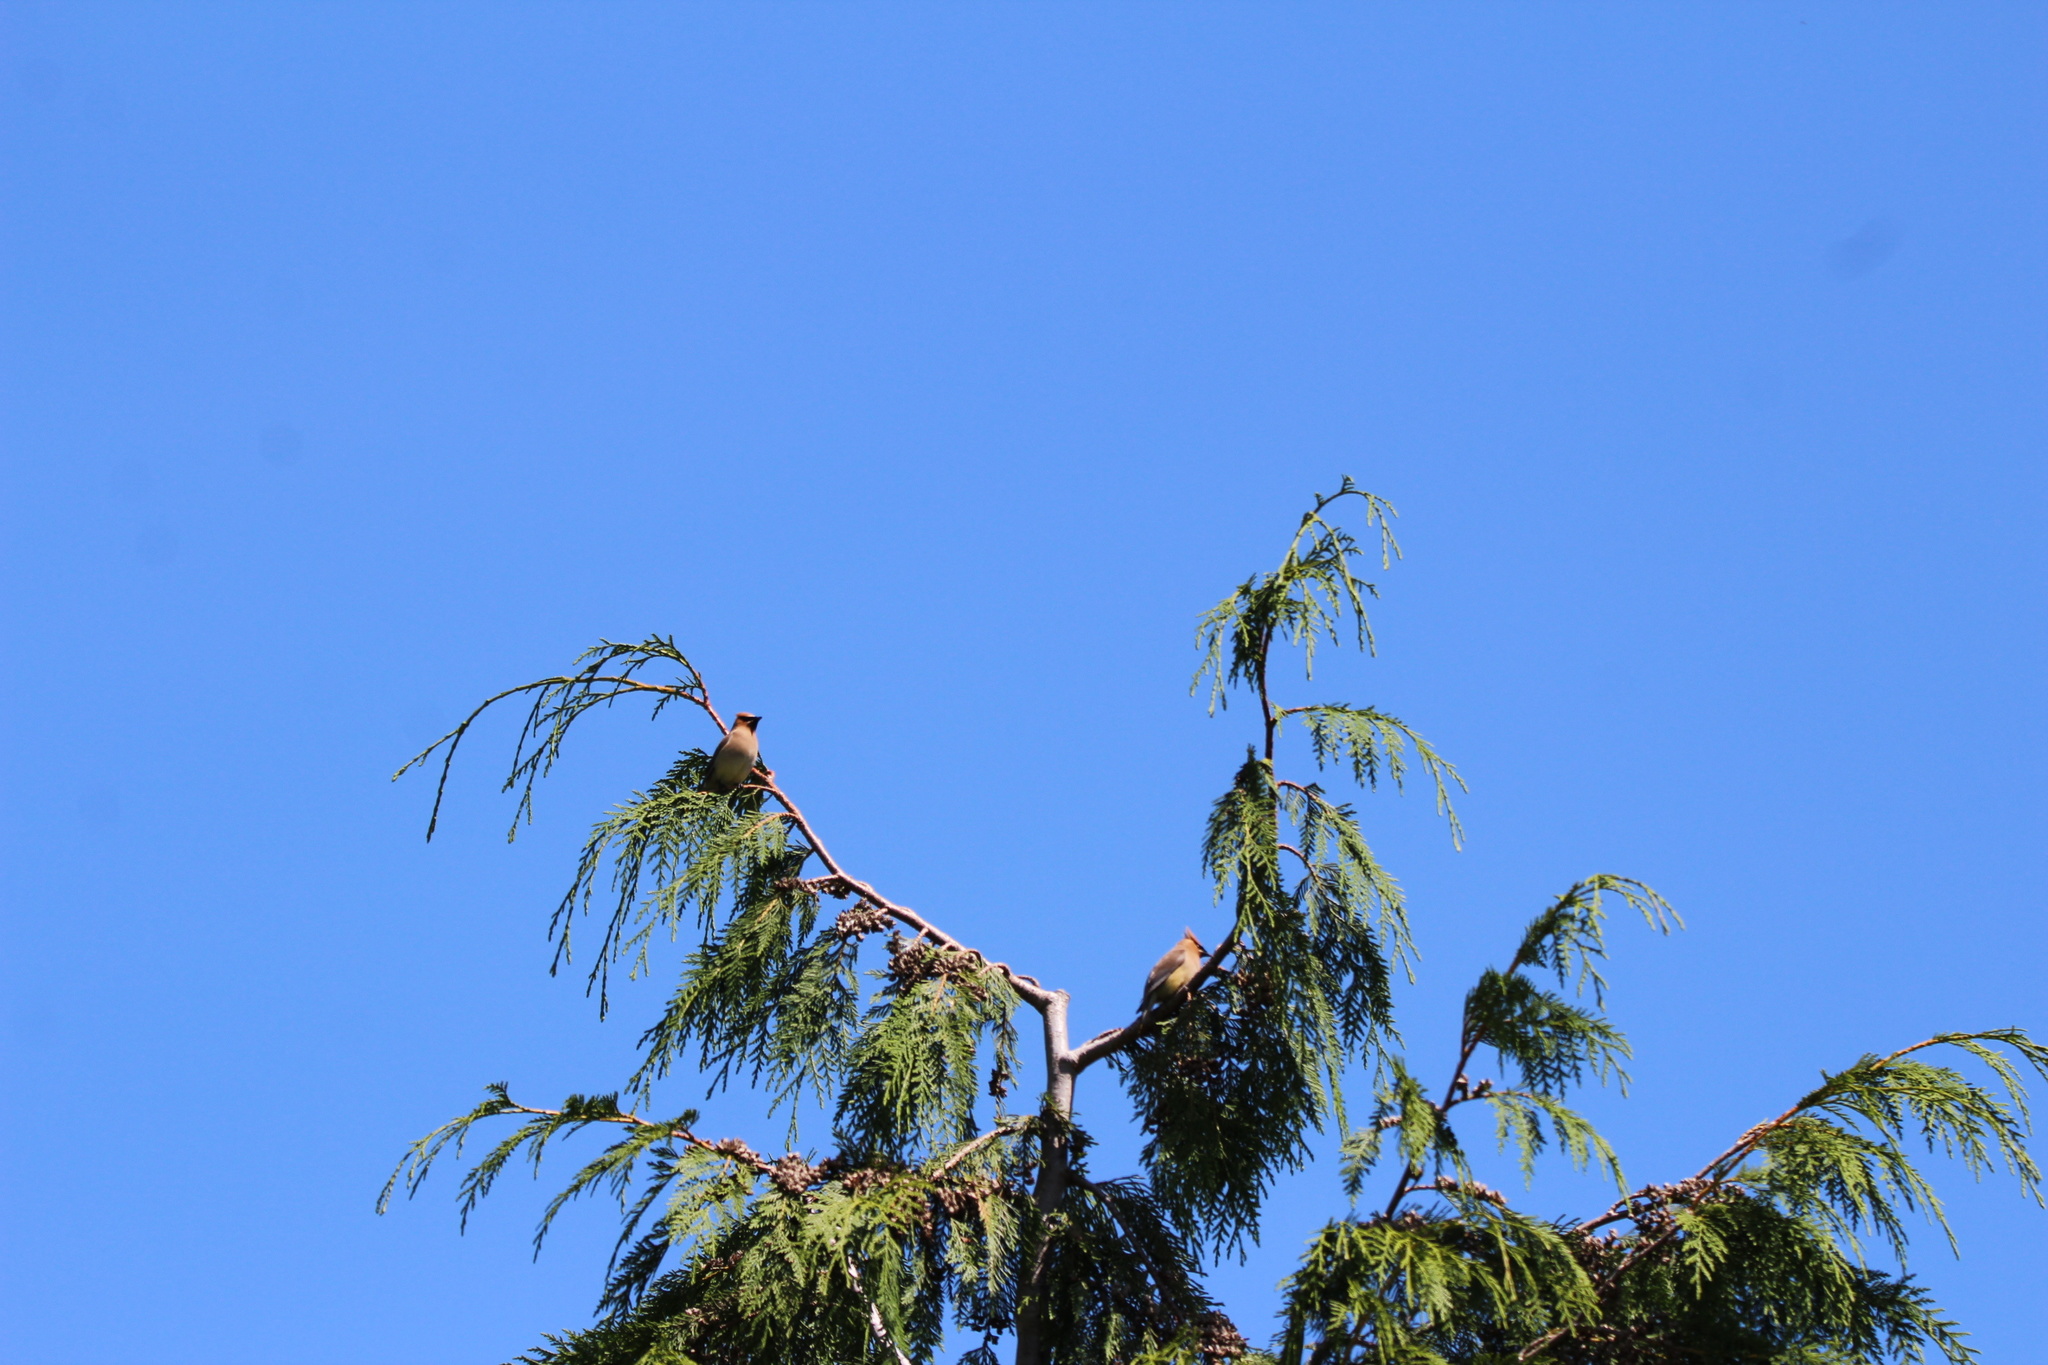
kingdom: Animalia
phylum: Chordata
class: Aves
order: Passeriformes
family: Bombycillidae
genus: Bombycilla
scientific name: Bombycilla cedrorum
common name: Cedar waxwing
